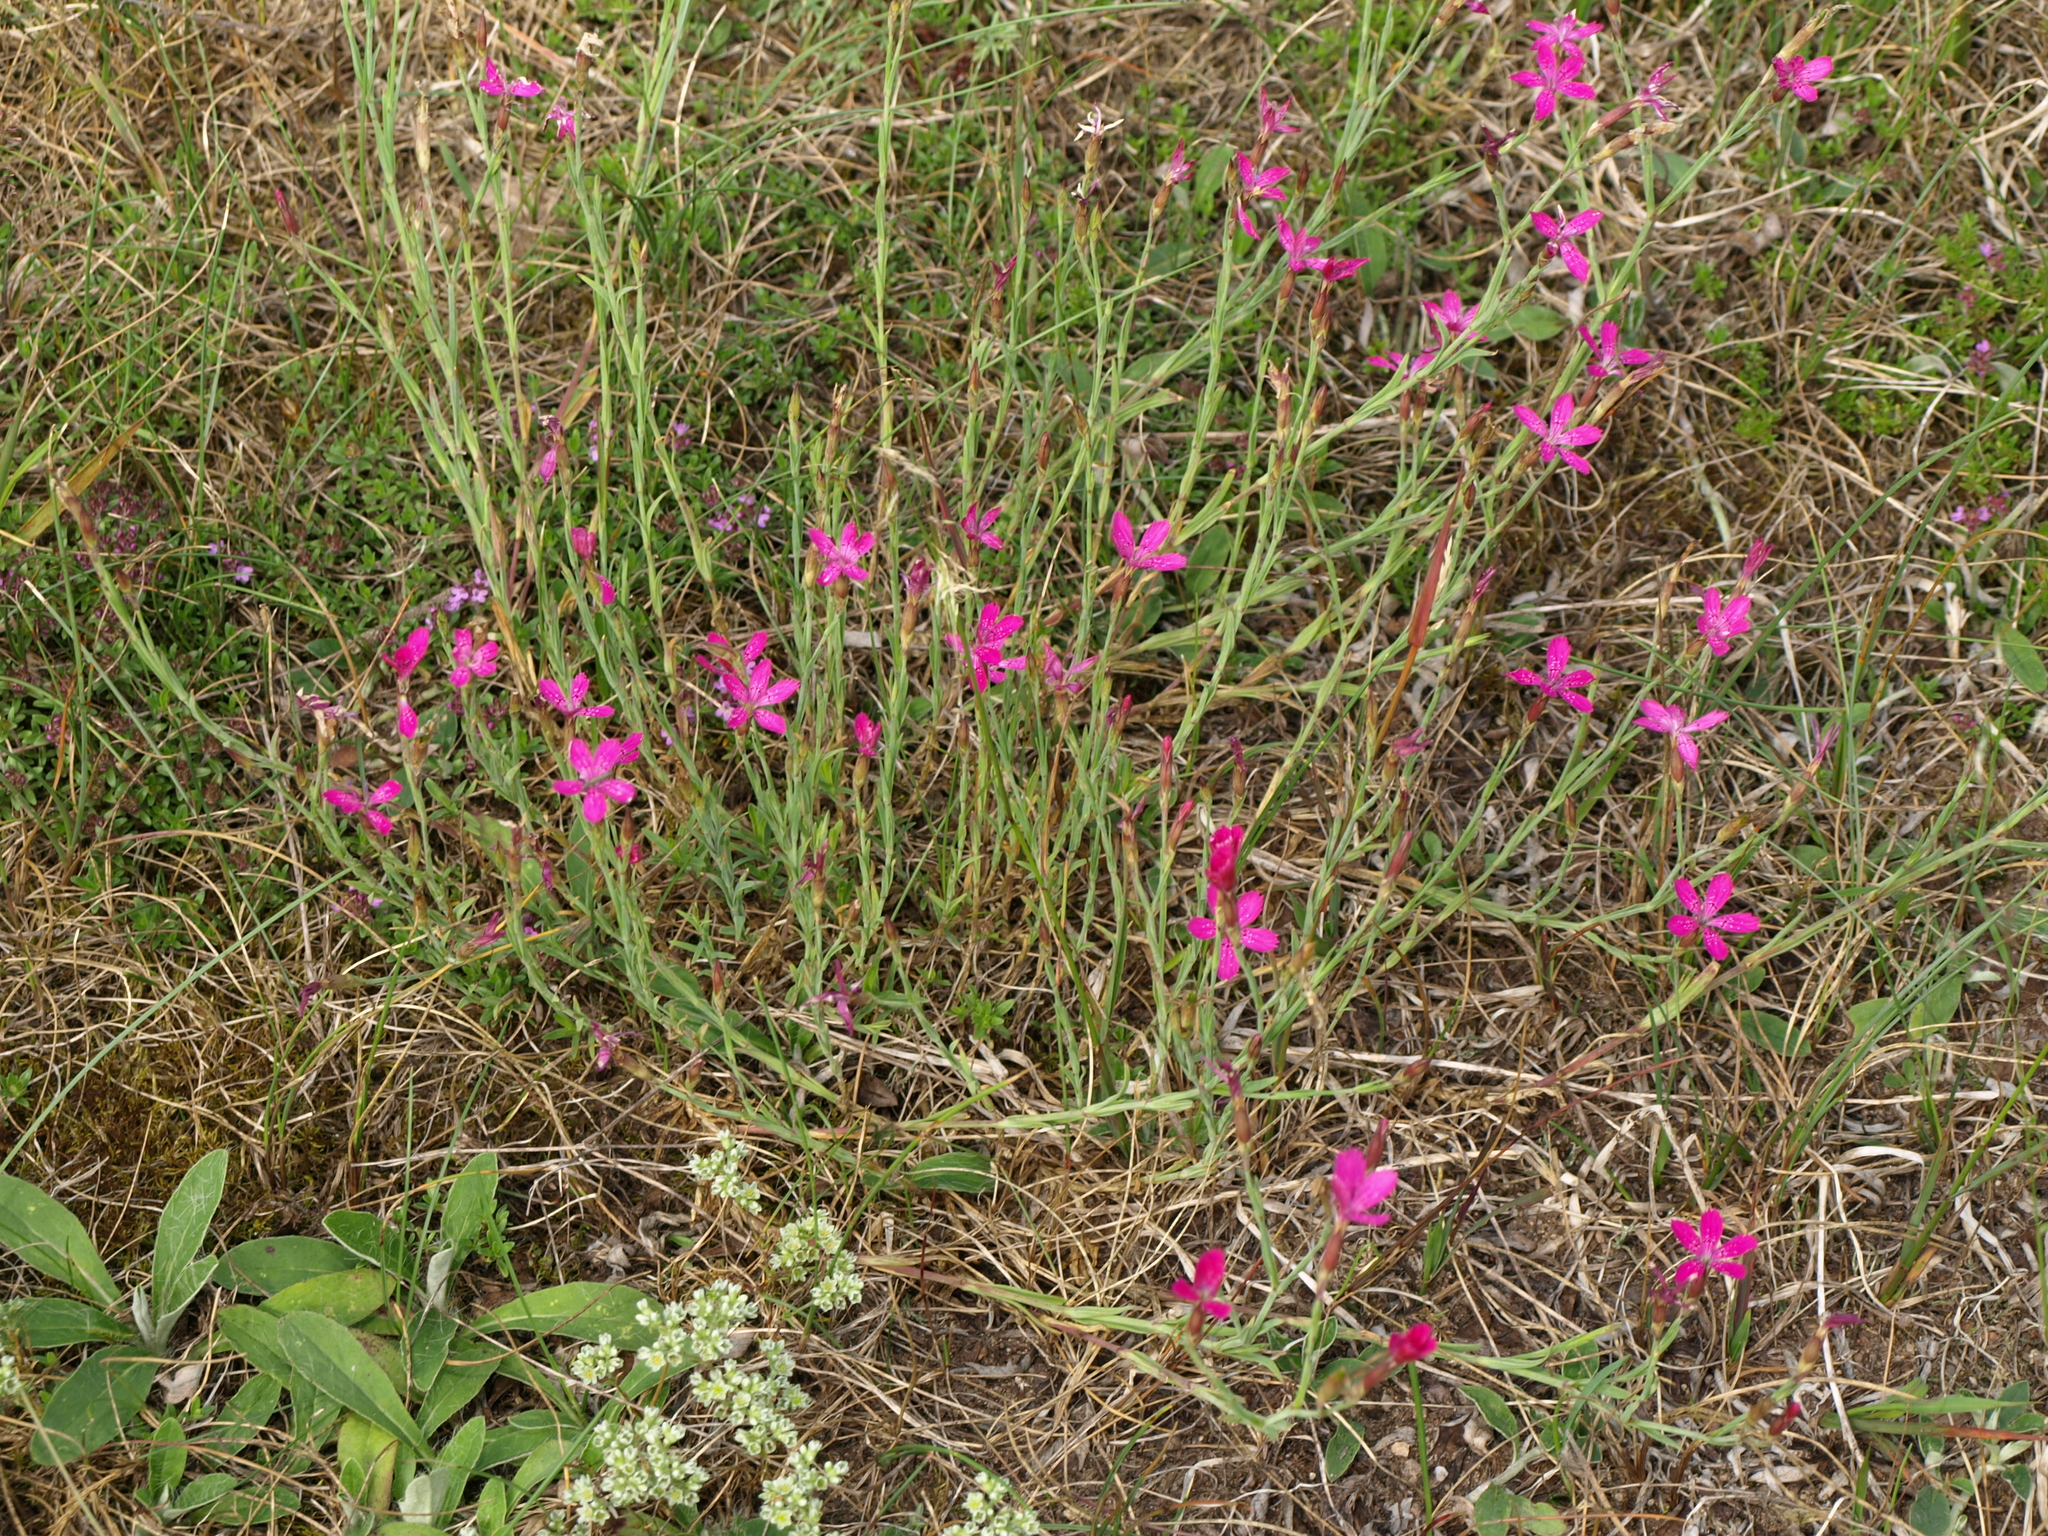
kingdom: Plantae
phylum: Tracheophyta
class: Magnoliopsida
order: Caryophyllales
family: Caryophyllaceae
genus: Dianthus
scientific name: Dianthus deltoides
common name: Maiden pink
